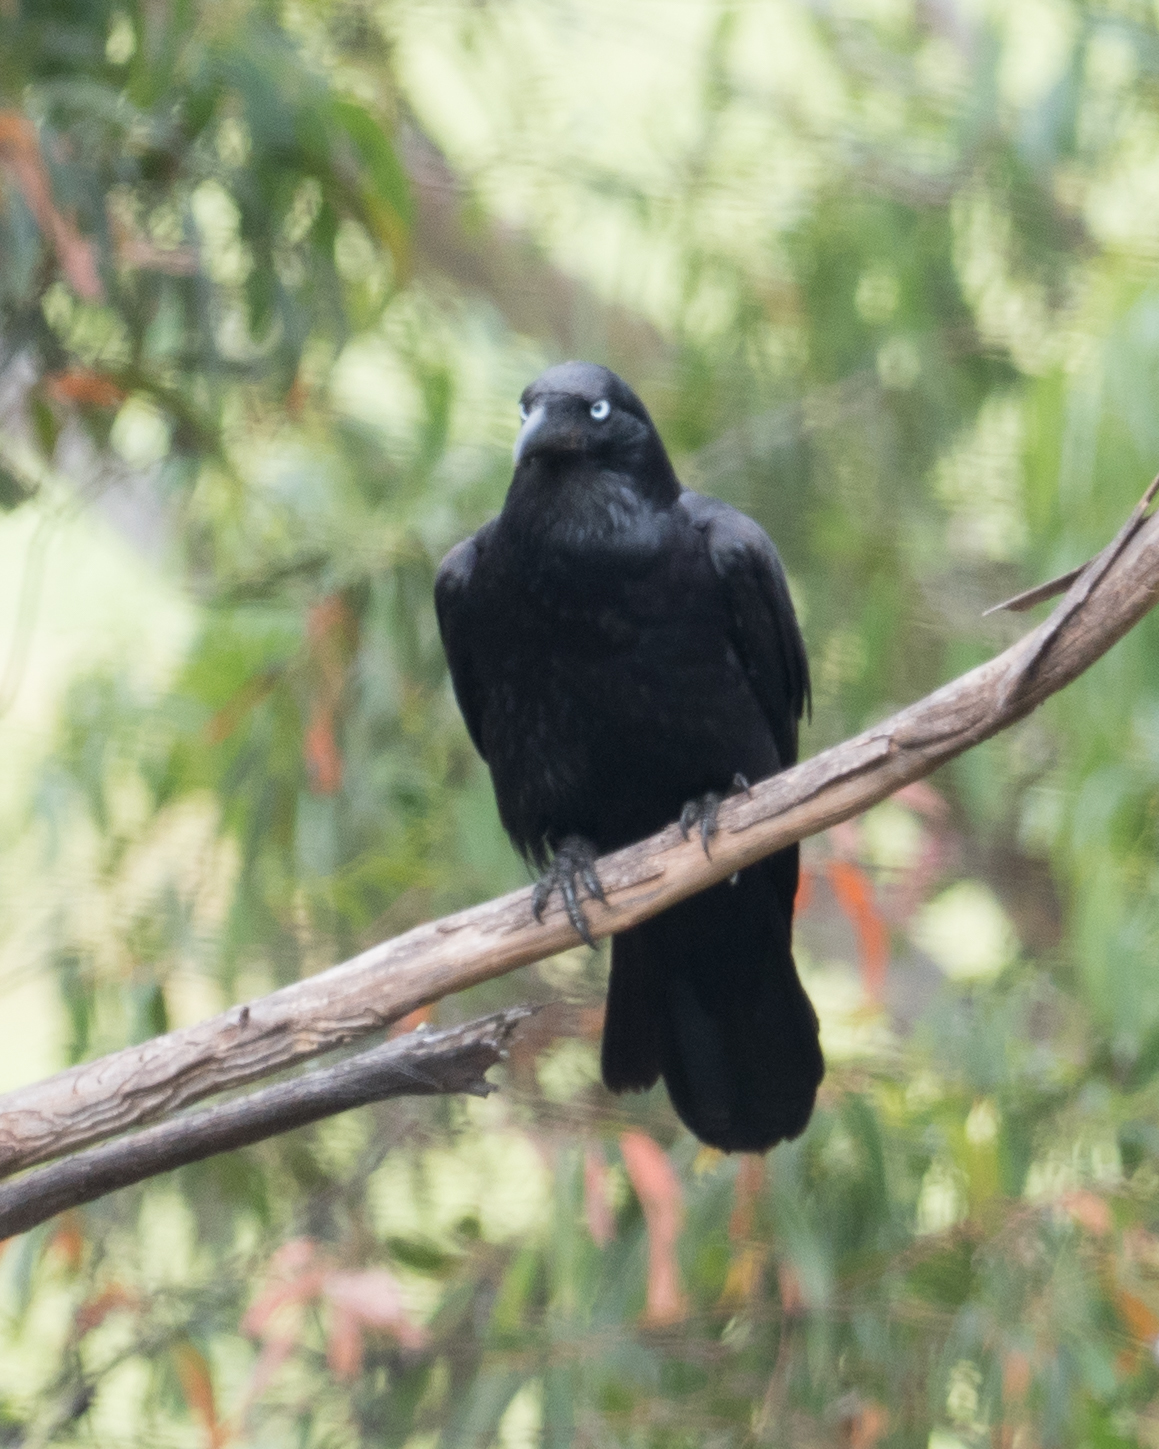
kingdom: Animalia
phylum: Chordata
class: Aves
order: Passeriformes
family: Corvidae
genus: Corvus
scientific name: Corvus tasmanicus
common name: Forest raven
